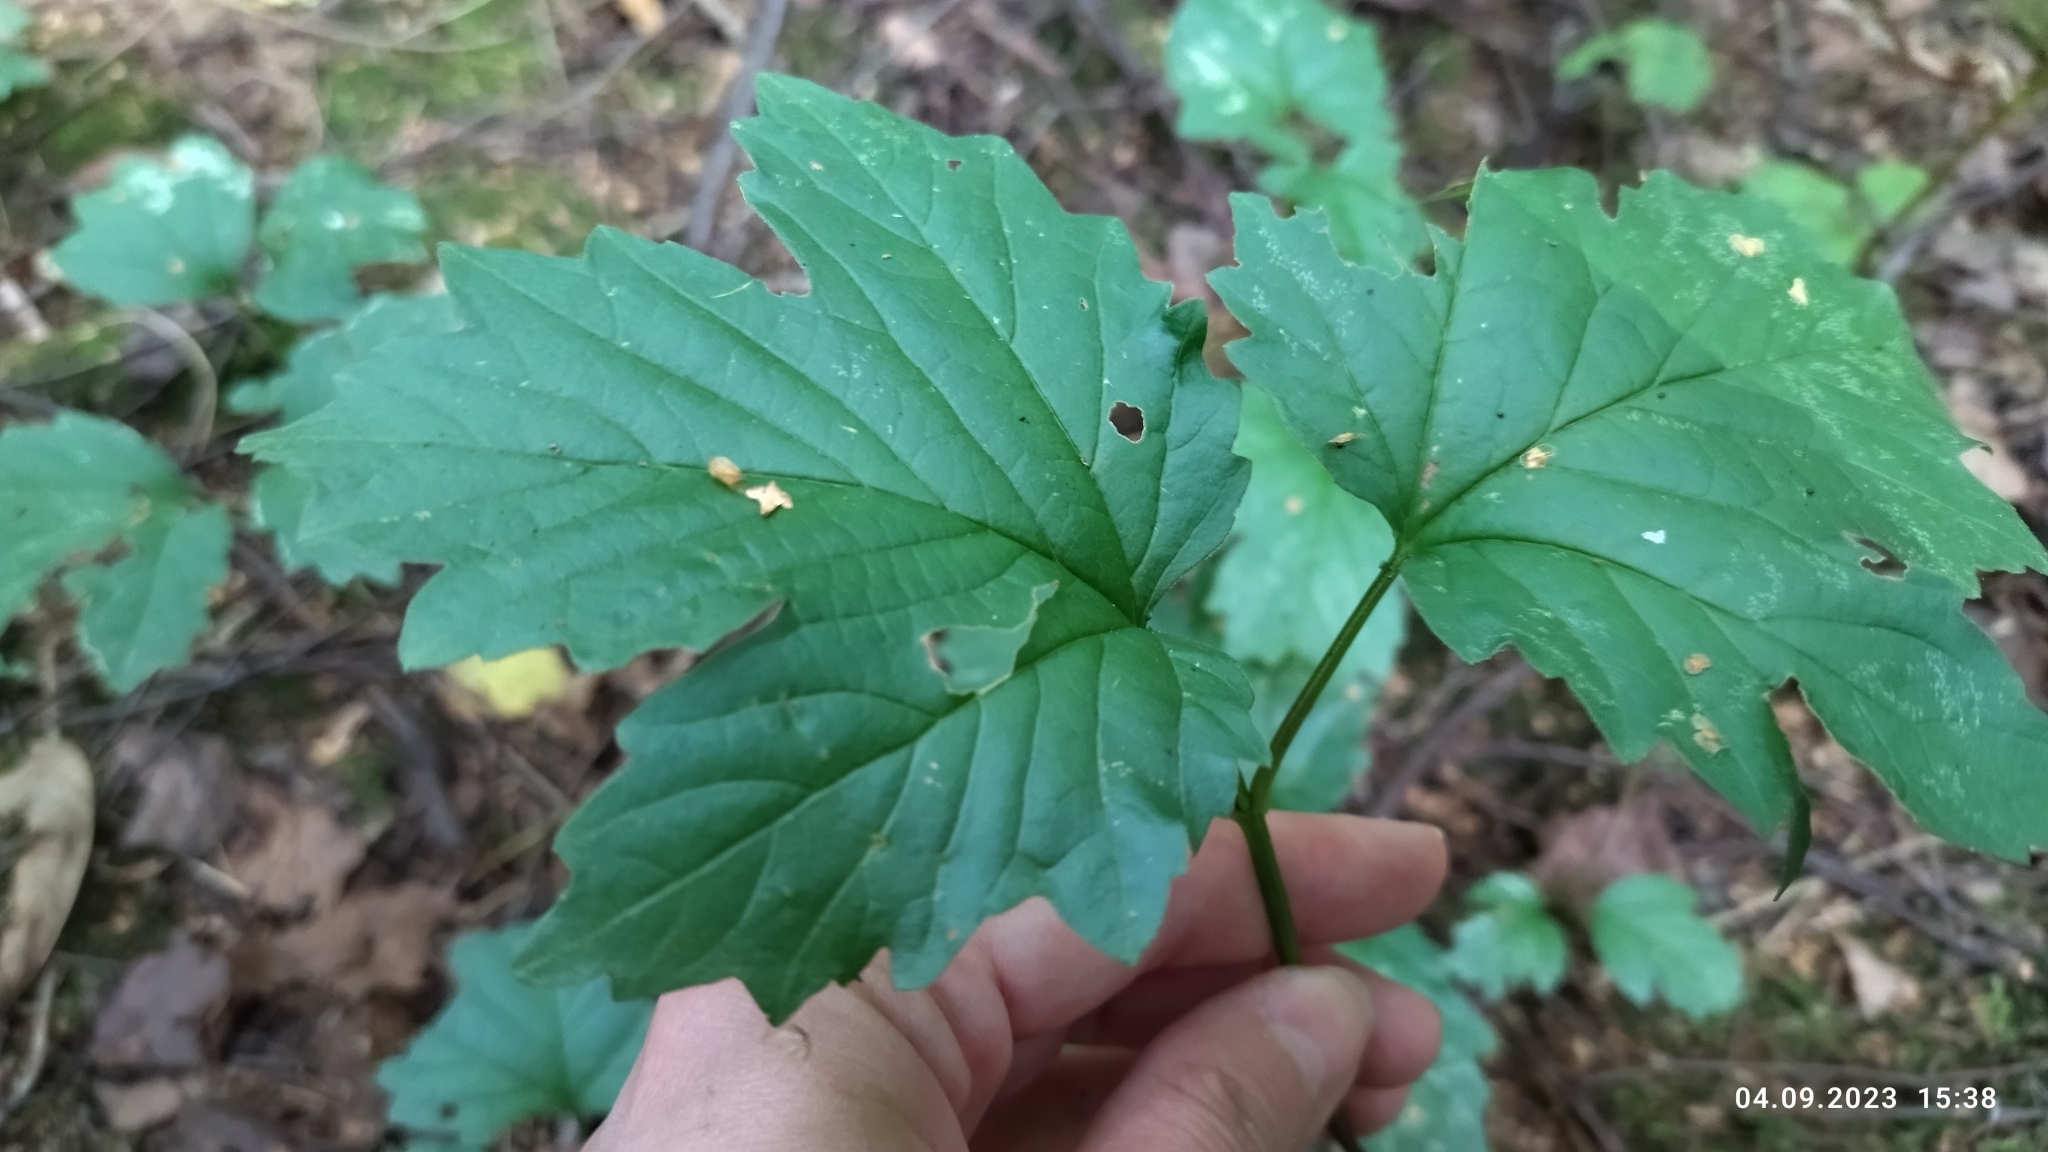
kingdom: Plantae
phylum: Tracheophyta
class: Magnoliopsida
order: Dipsacales
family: Viburnaceae
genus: Viburnum
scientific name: Viburnum opulus
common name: Guelder-rose
